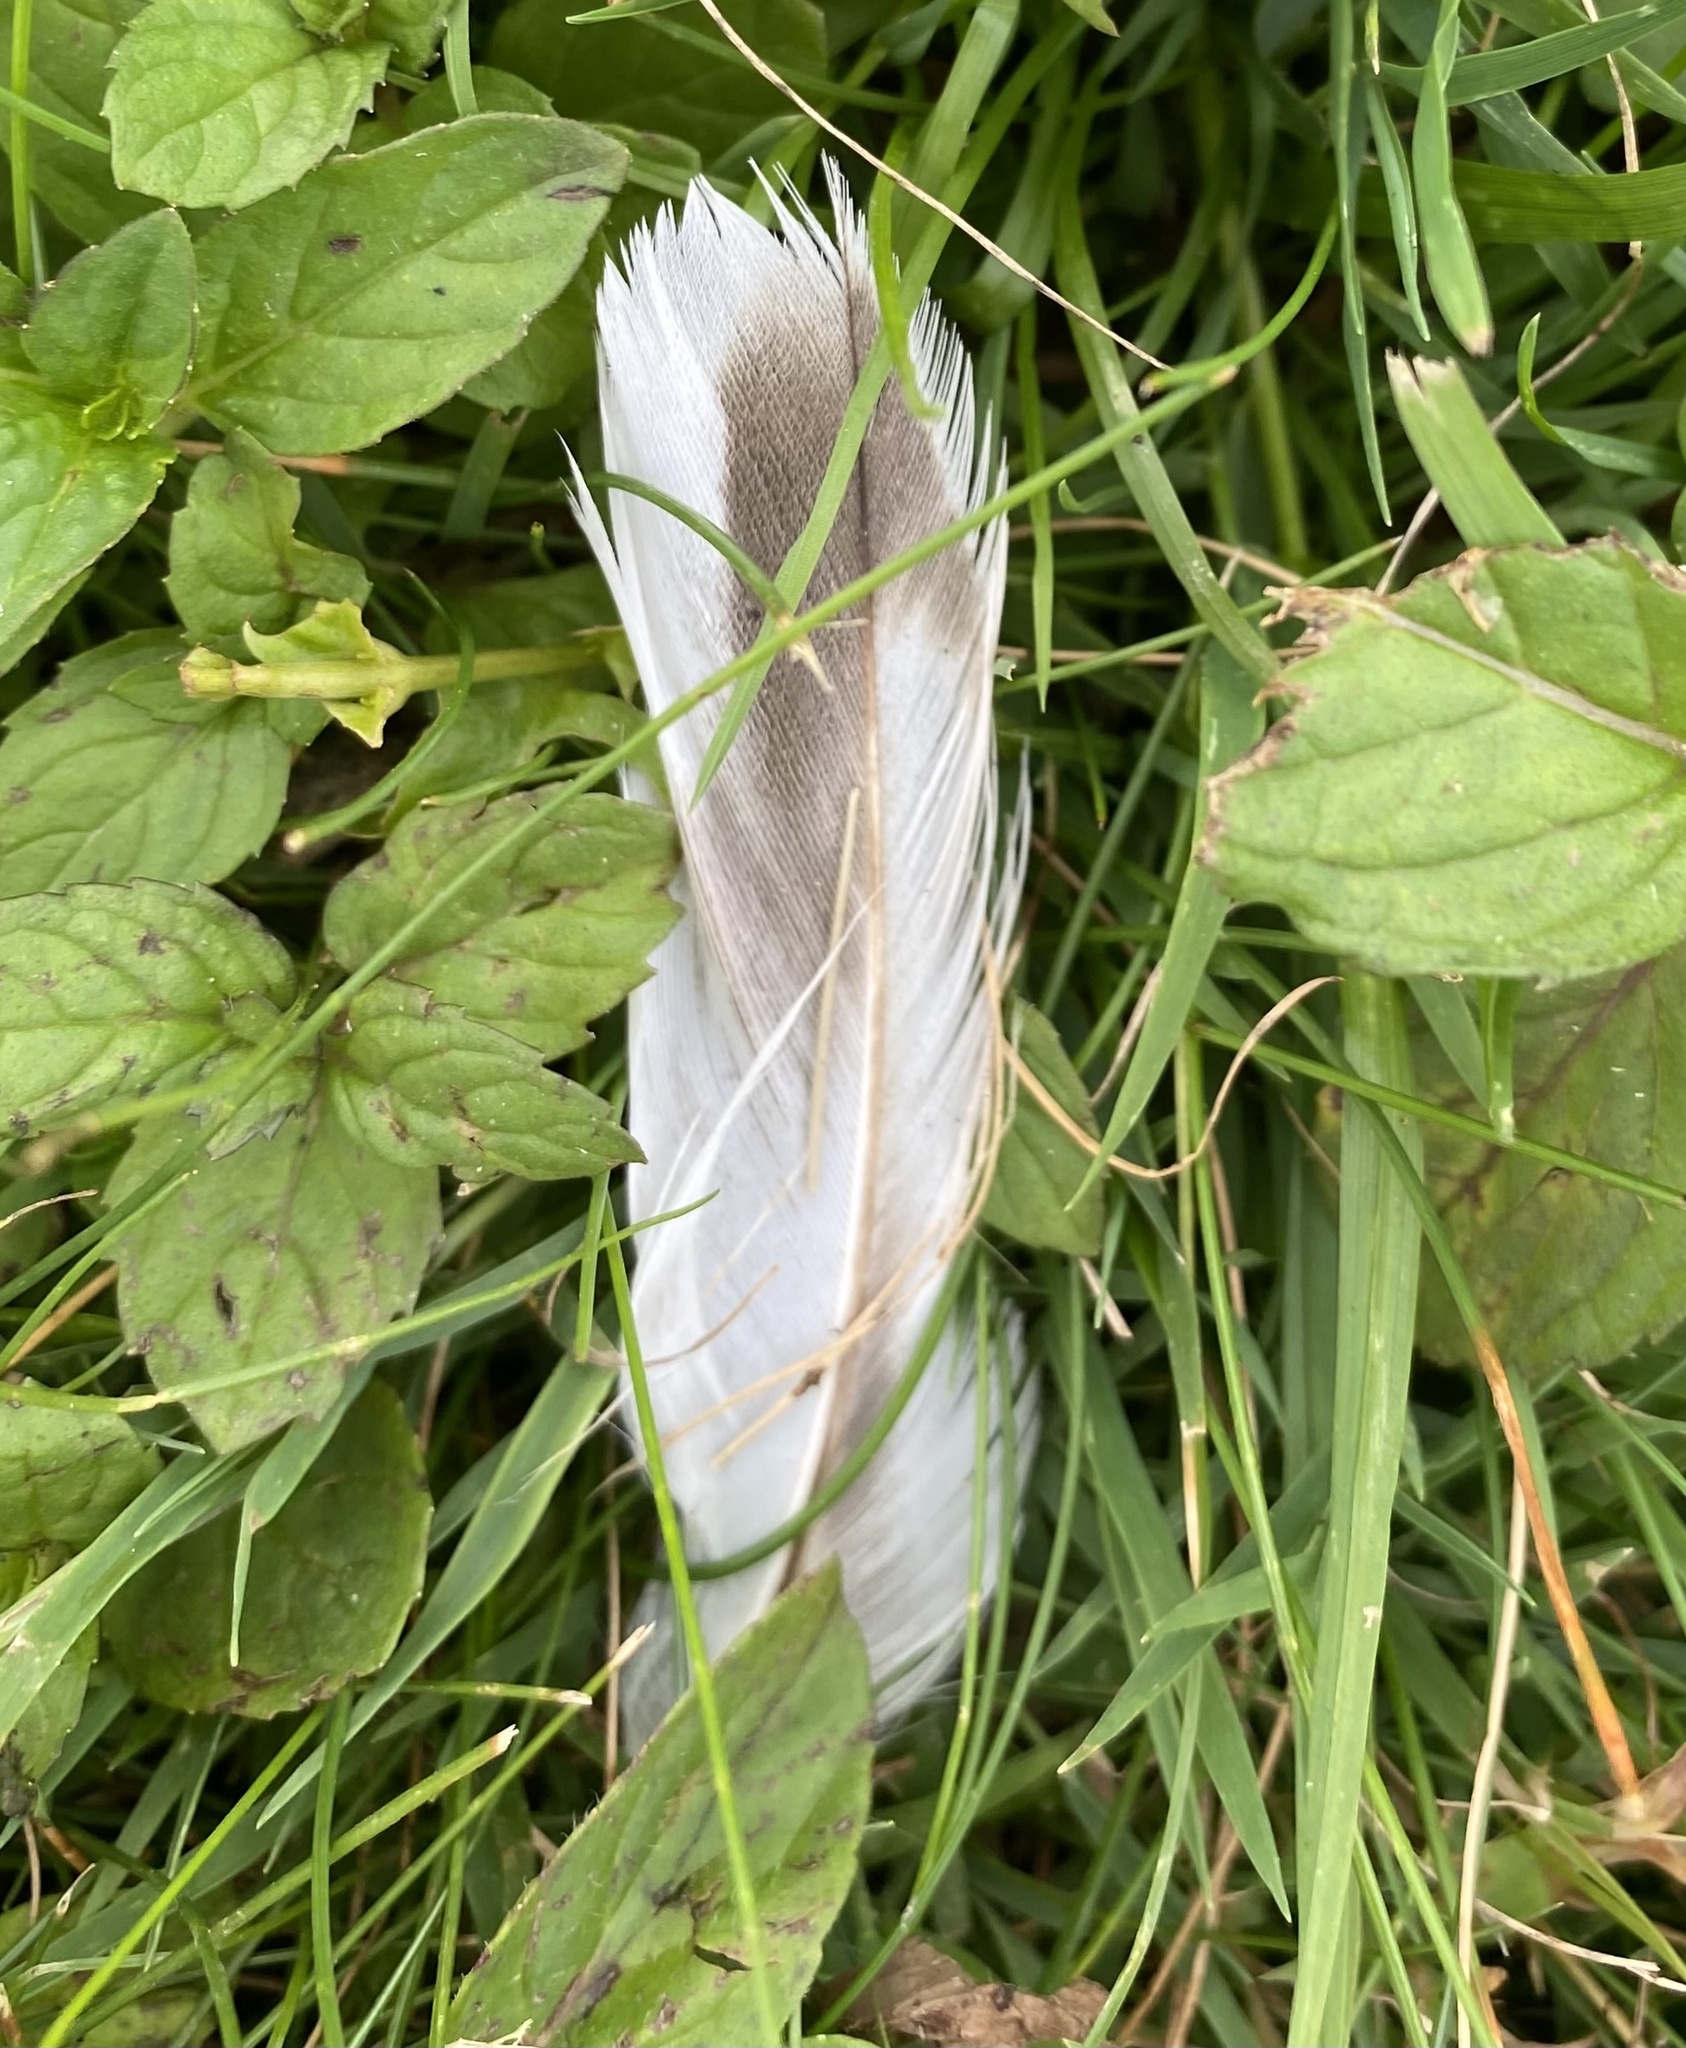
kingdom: Animalia
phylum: Chordata
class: Aves
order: Anseriformes
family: Anatidae
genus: Anas
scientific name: Anas platyrhynchos
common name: Mallard
